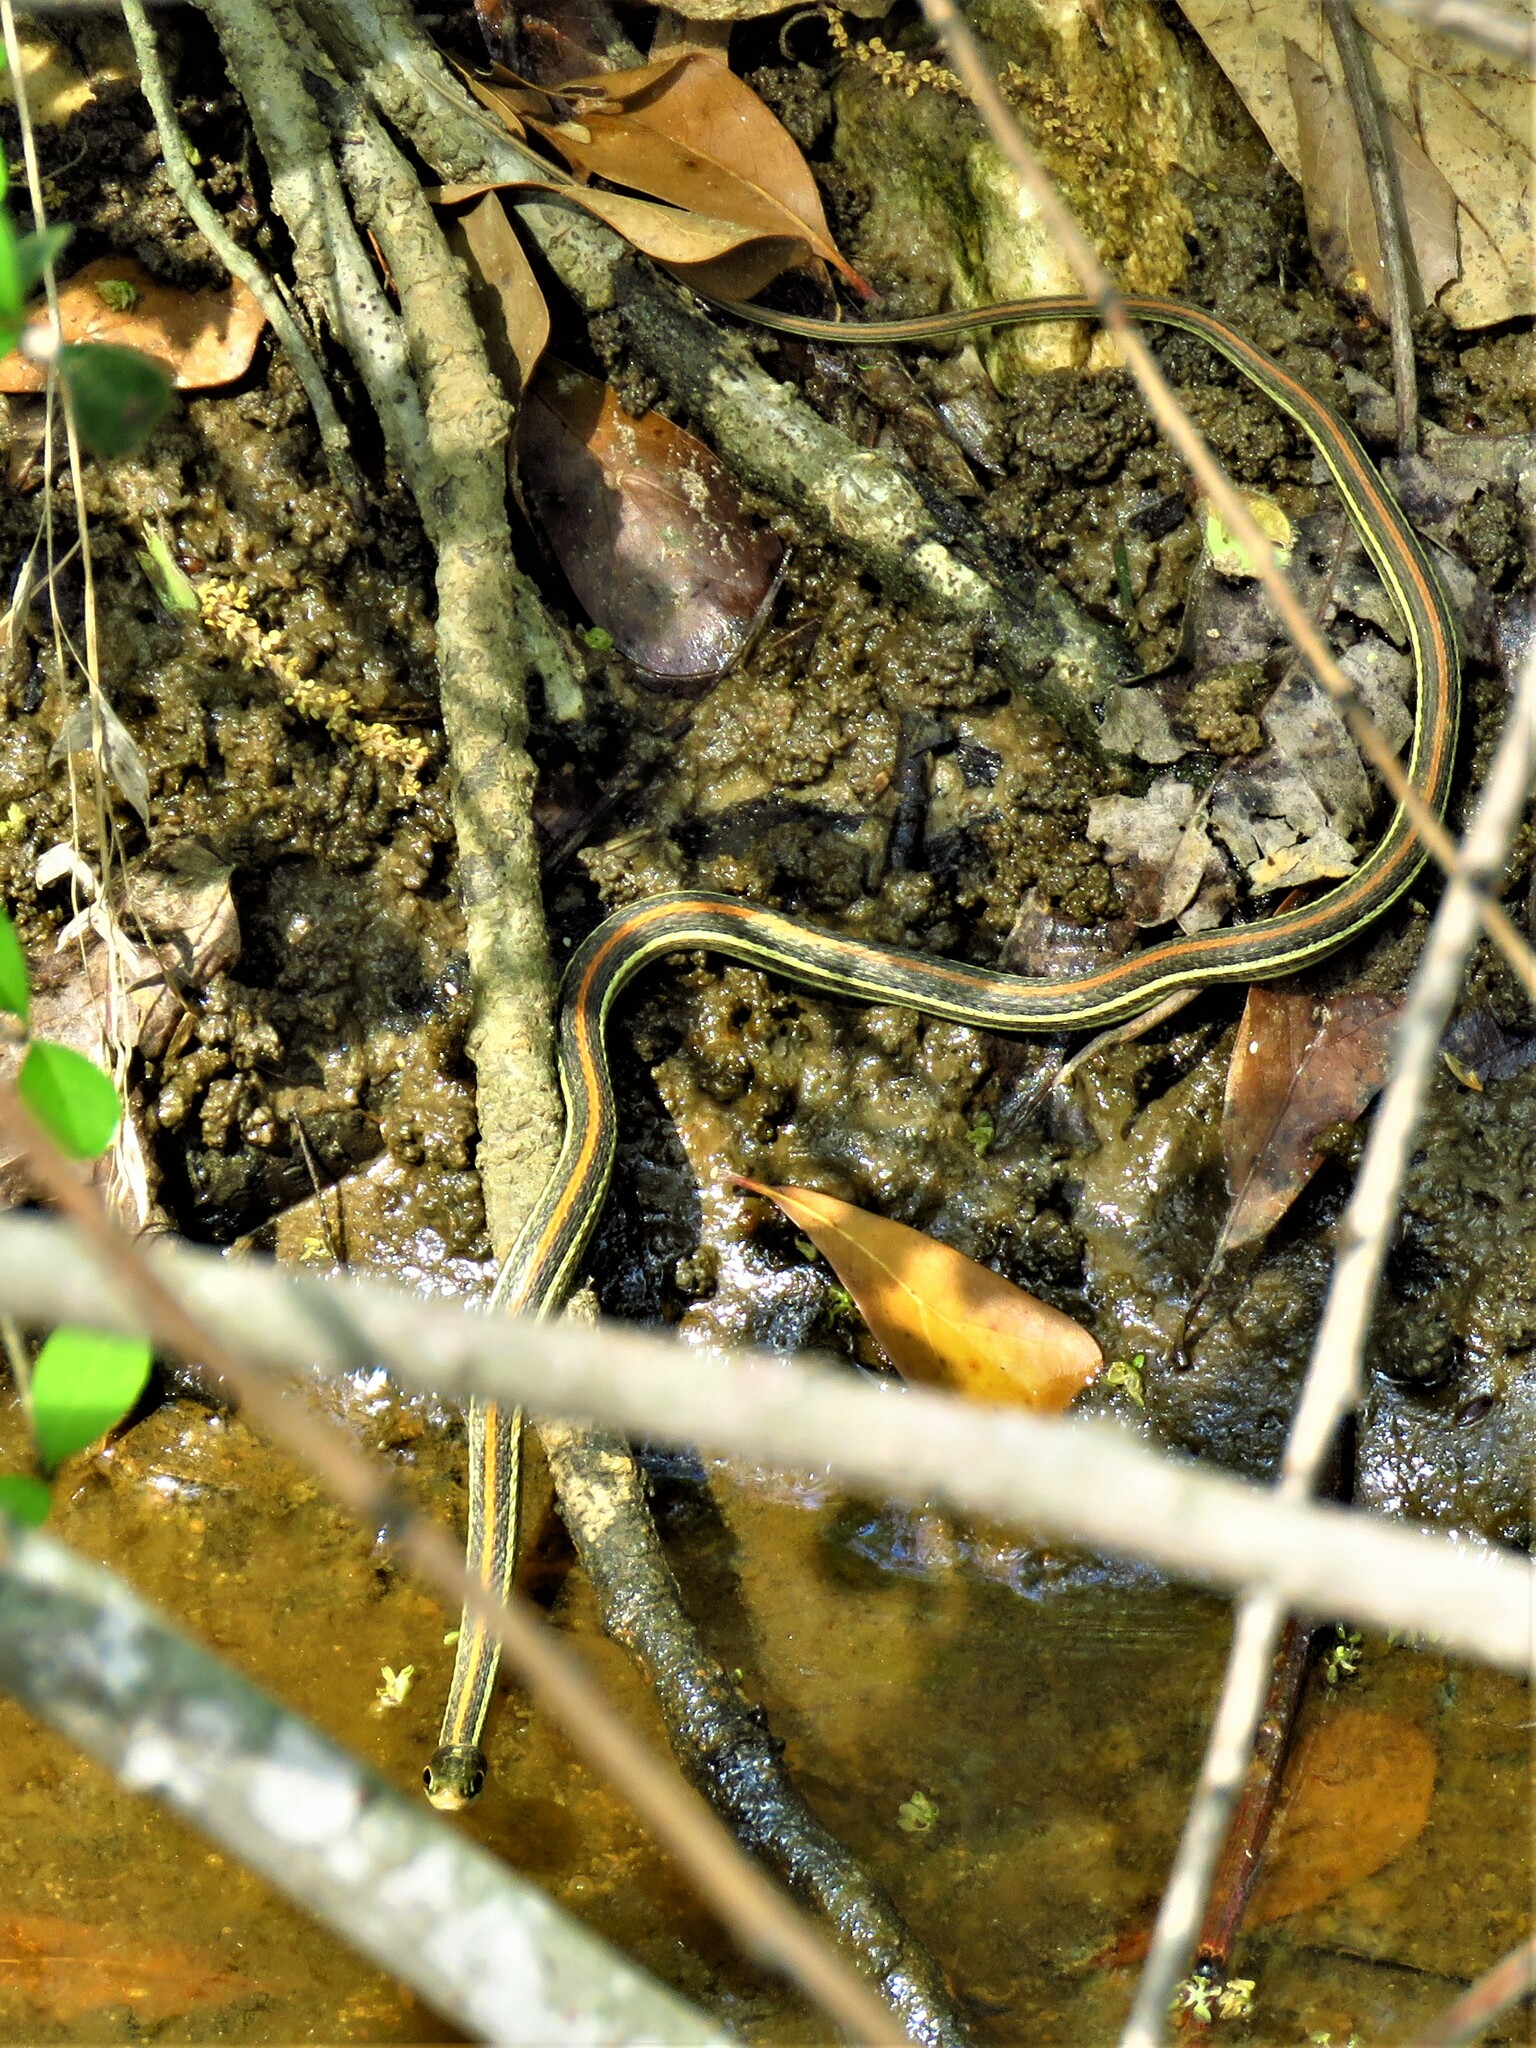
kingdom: Animalia
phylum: Chordata
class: Squamata
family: Colubridae
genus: Thamnophis
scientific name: Thamnophis proximus
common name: Western ribbon snake
